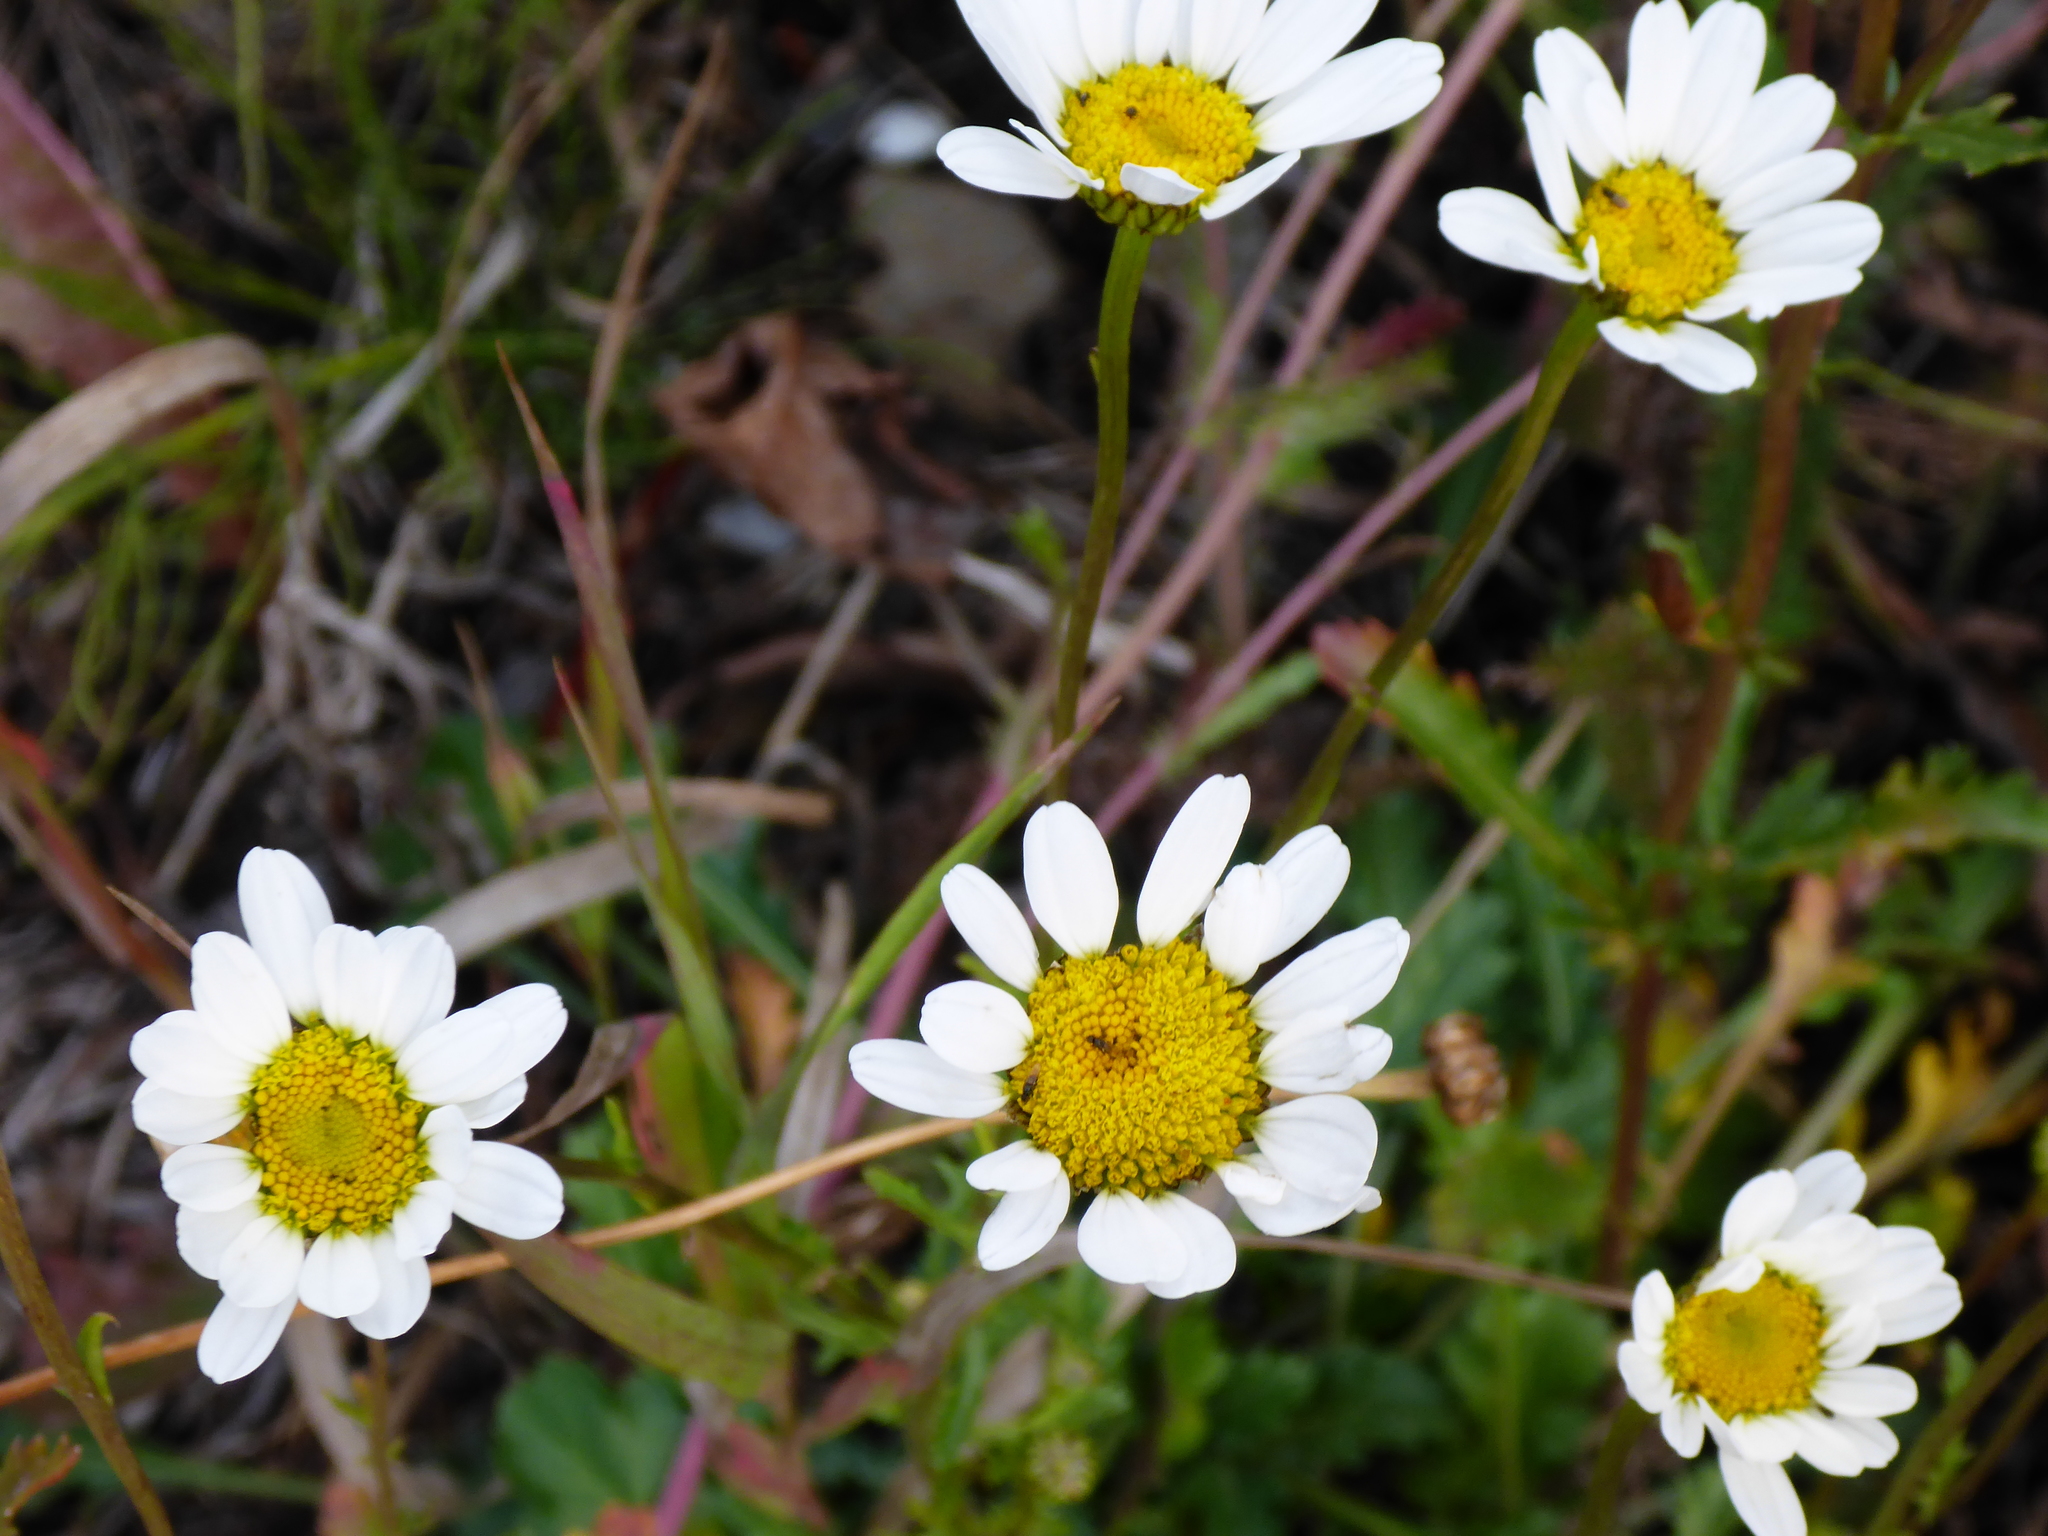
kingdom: Plantae
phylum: Tracheophyta
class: Magnoliopsida
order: Asterales
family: Asteraceae
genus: Leucanthemum
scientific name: Leucanthemum vulgare
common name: Oxeye daisy
